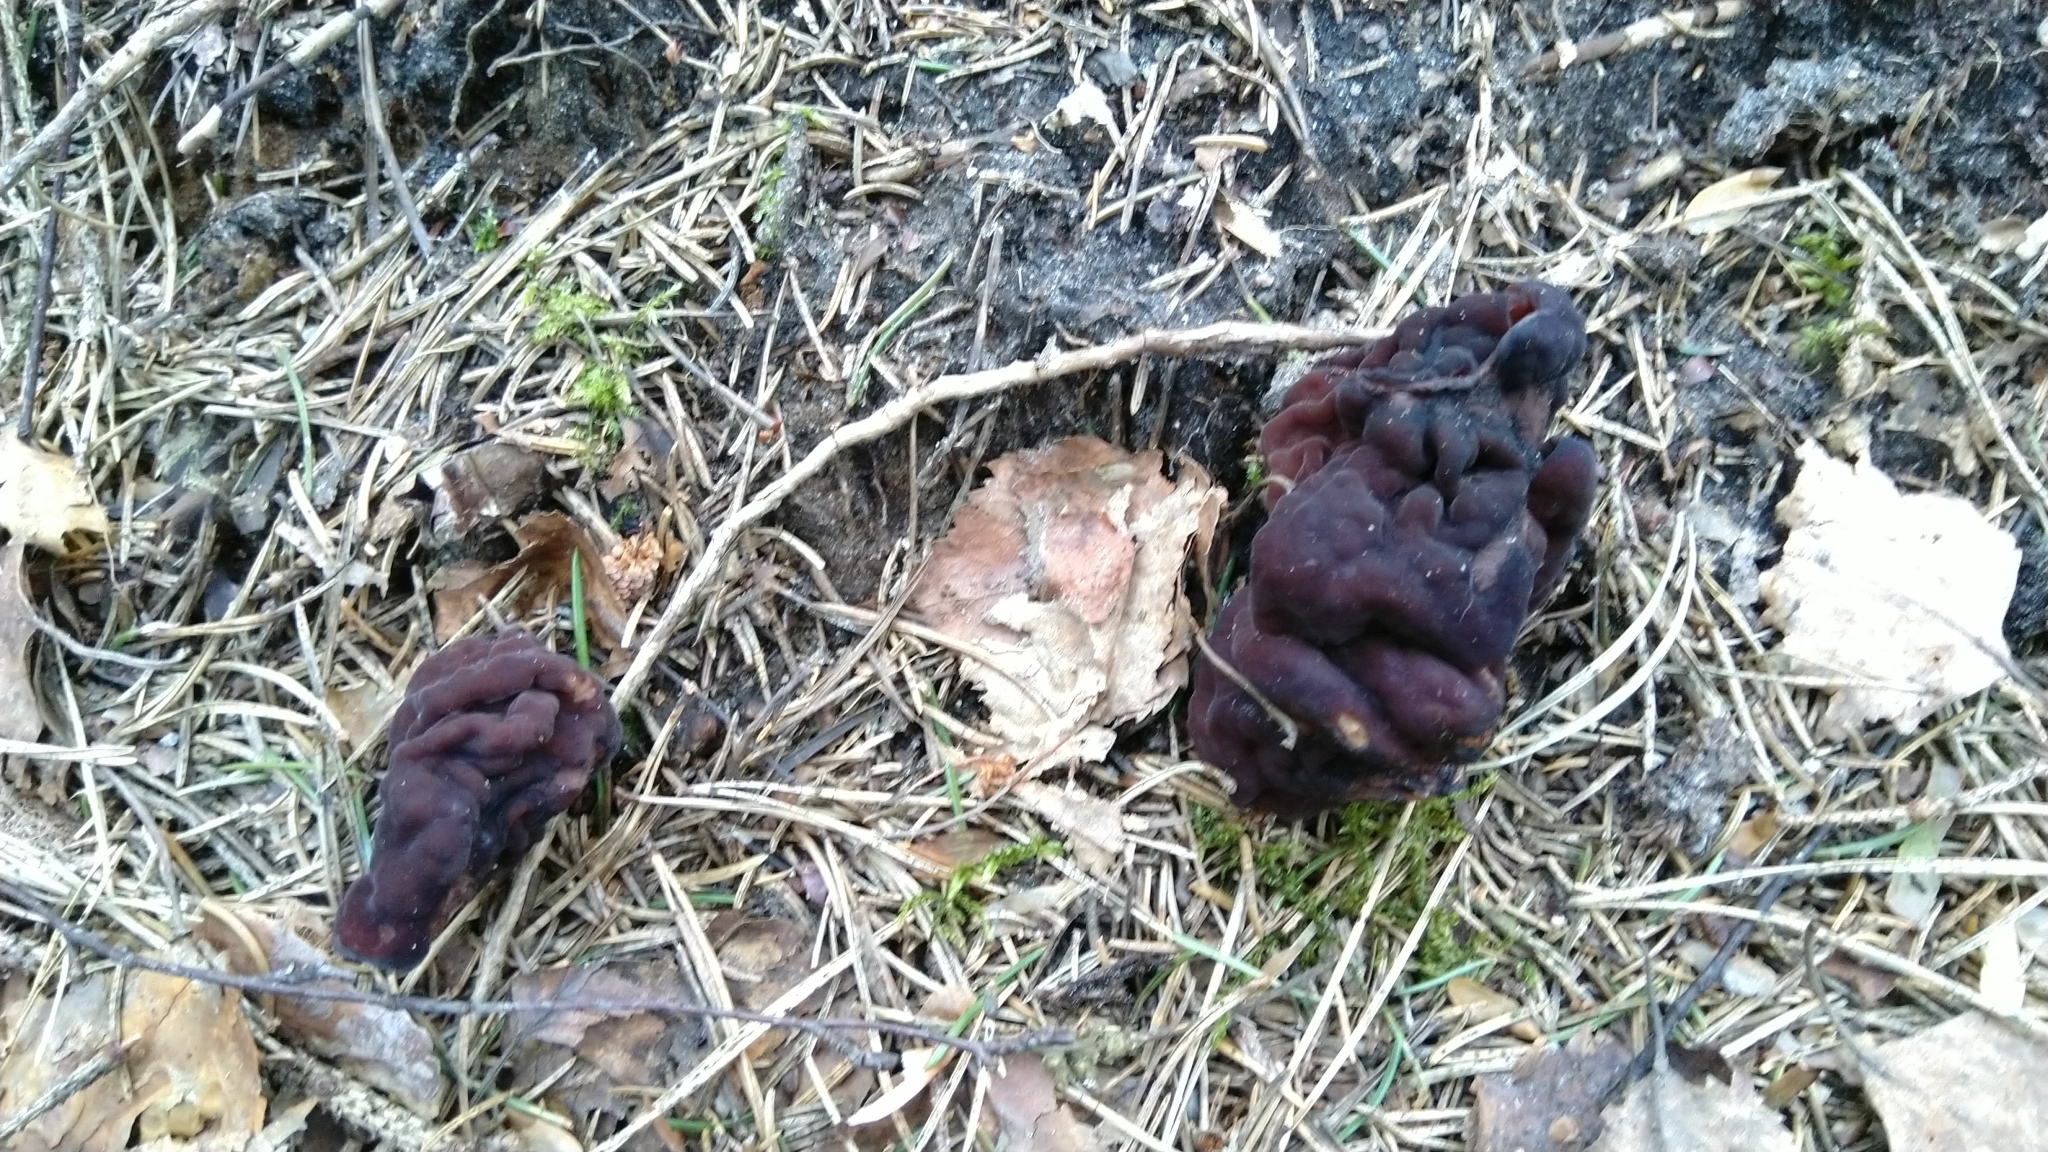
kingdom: Fungi
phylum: Ascomycota
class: Pezizomycetes
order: Pezizales
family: Discinaceae
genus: Gyromitra
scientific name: Gyromitra esculenta
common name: False morel
